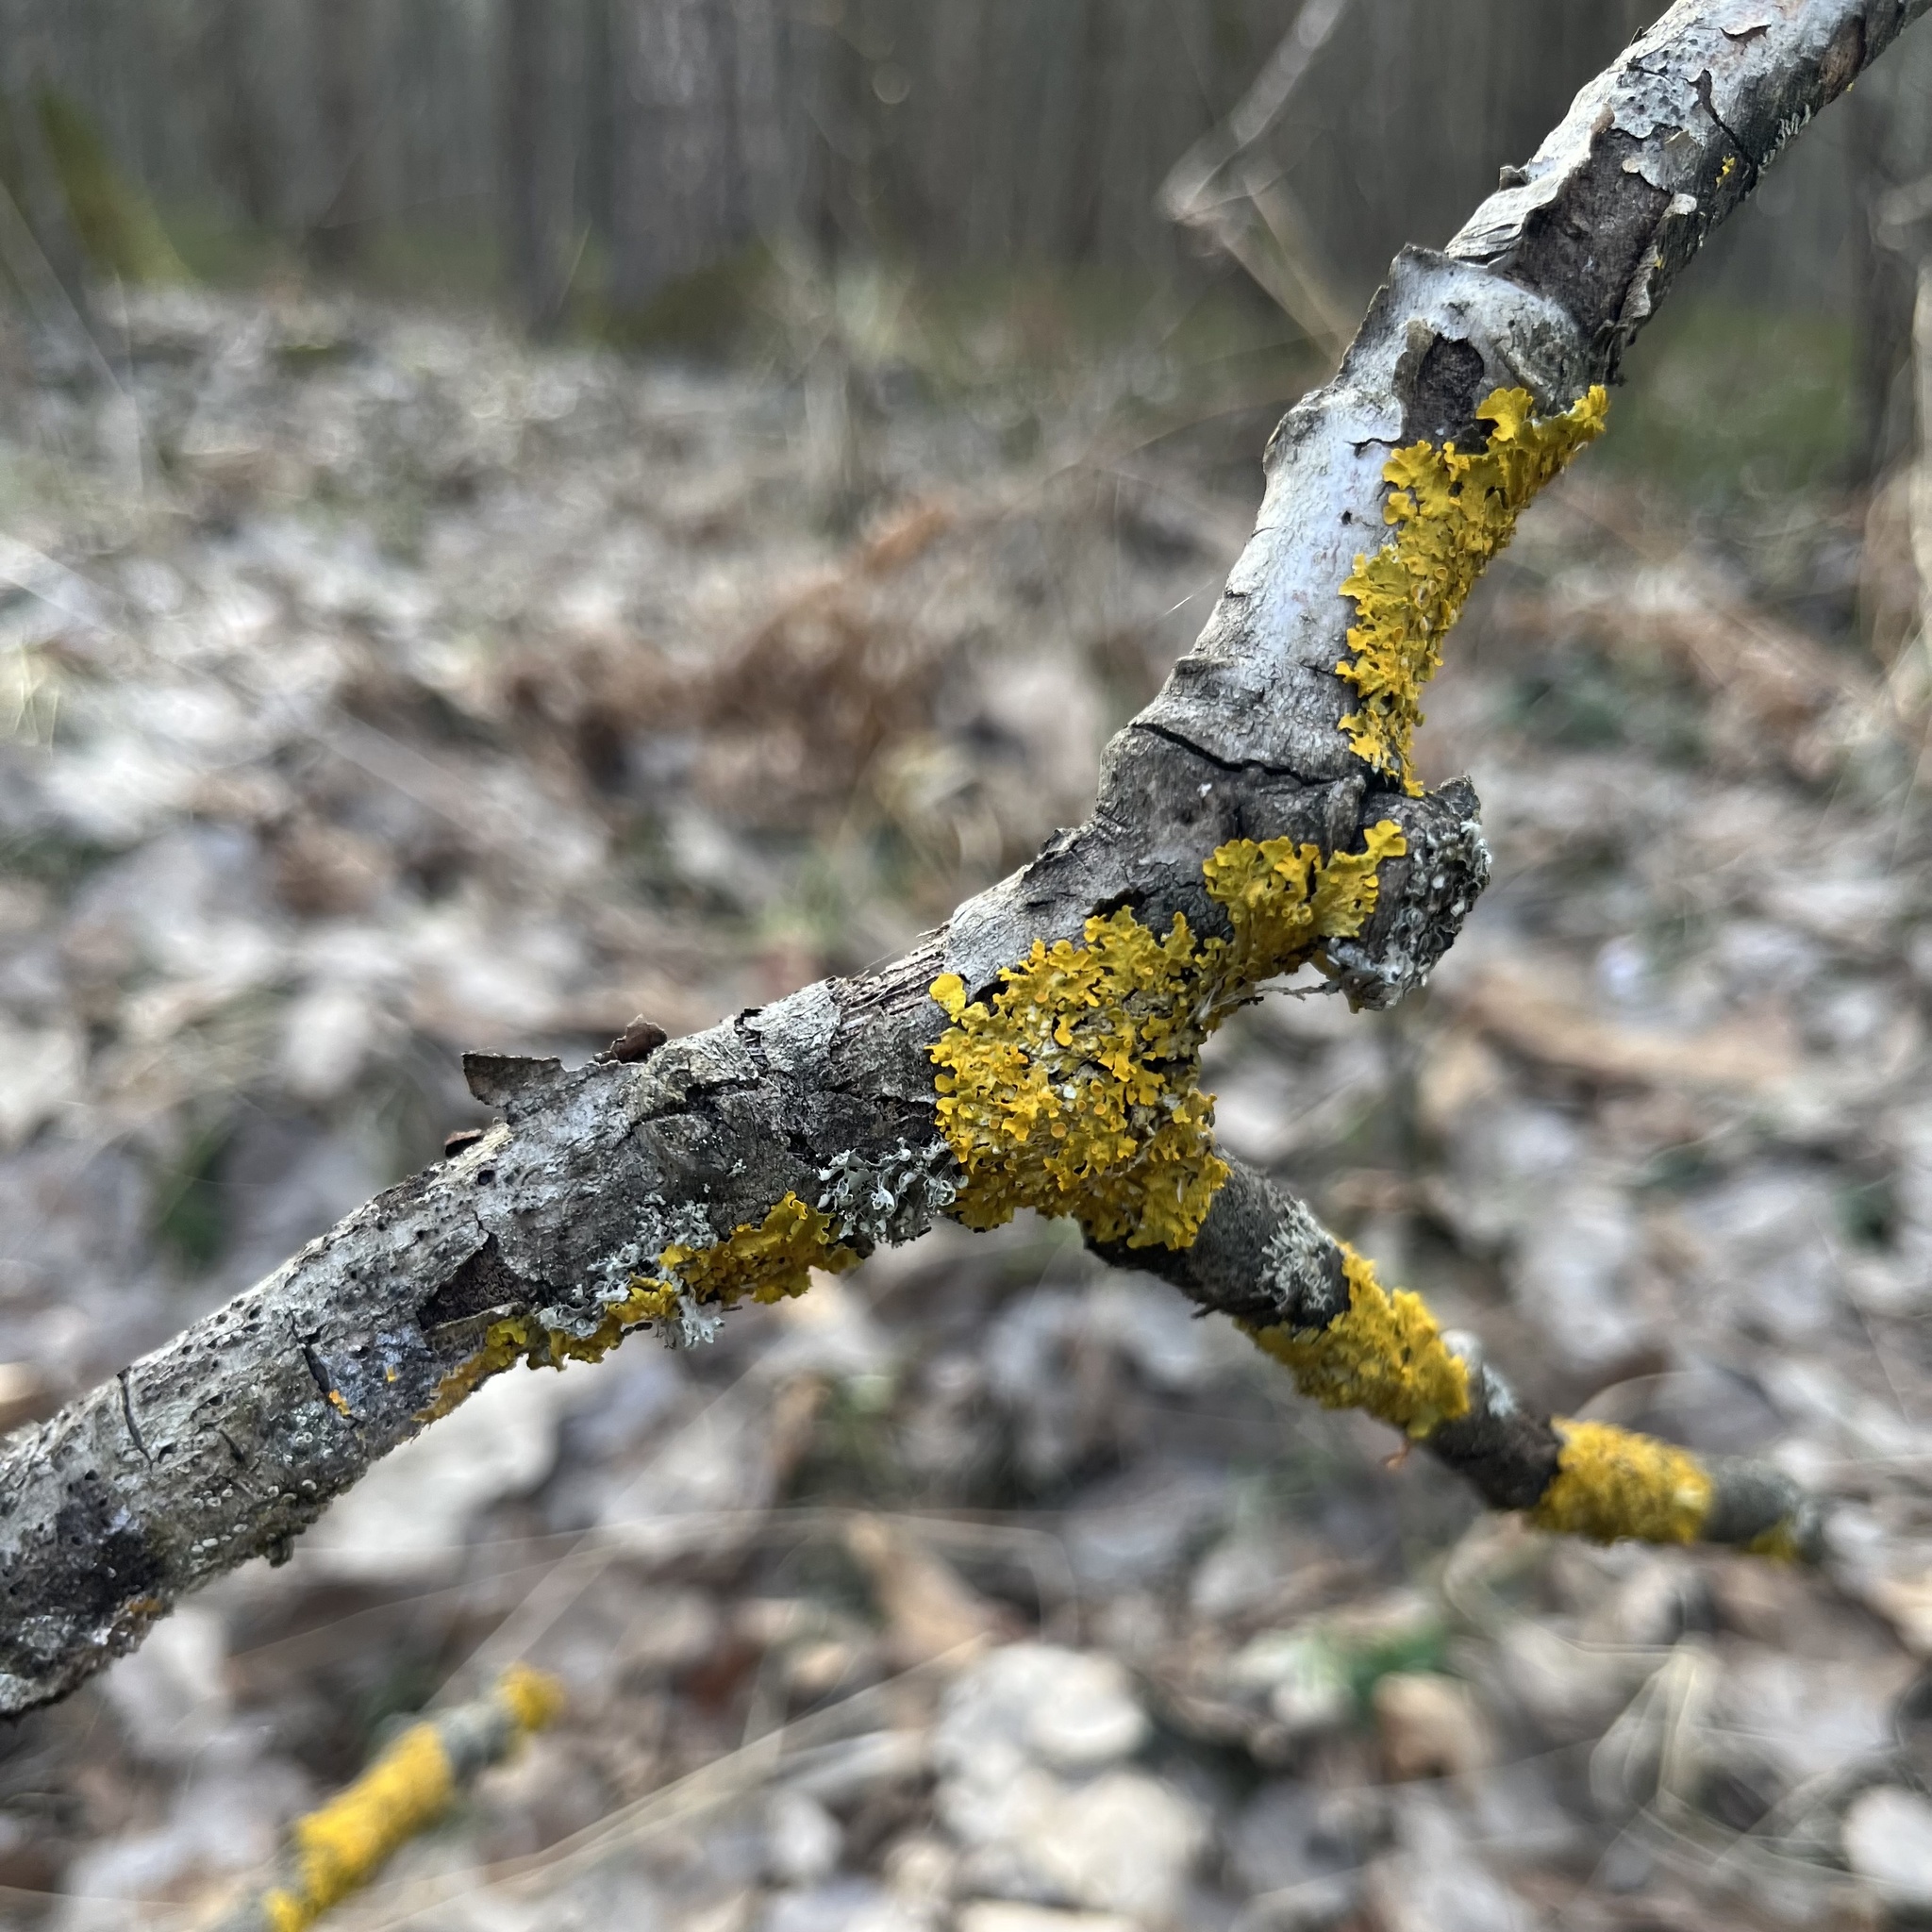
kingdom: Fungi
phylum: Ascomycota
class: Lecanoromycetes
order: Teloschistales
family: Teloschistaceae
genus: Xanthoria
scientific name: Xanthoria parietina
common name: Common orange lichen
